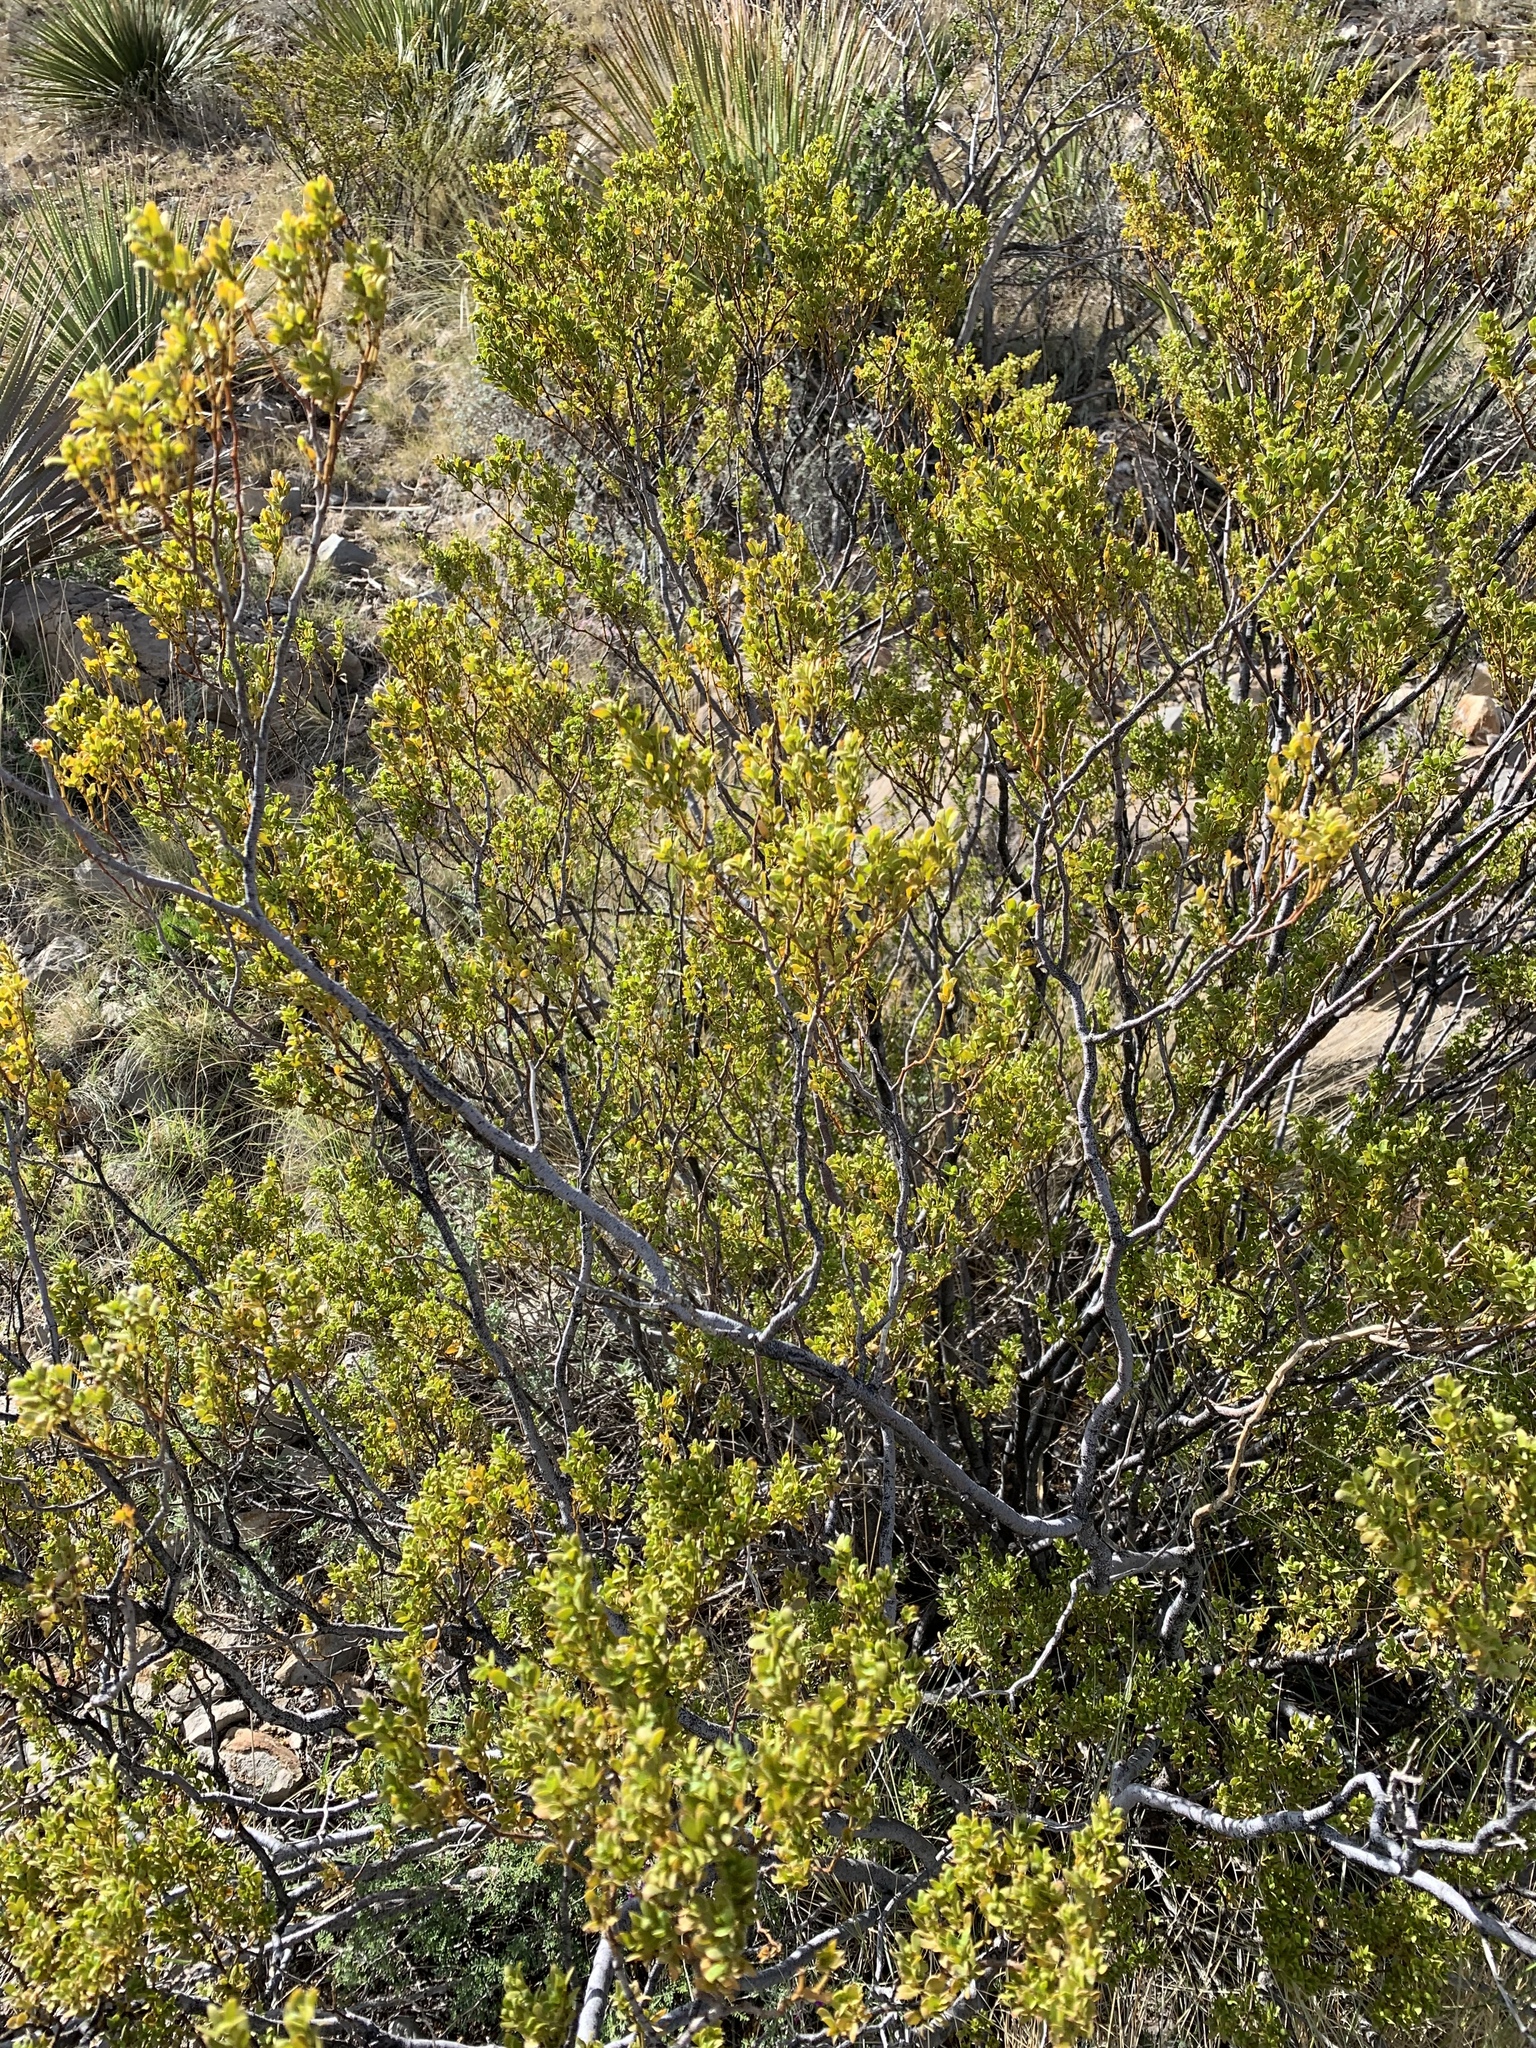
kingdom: Plantae
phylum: Tracheophyta
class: Magnoliopsida
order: Zygophyllales
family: Zygophyllaceae
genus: Larrea
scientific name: Larrea tridentata
